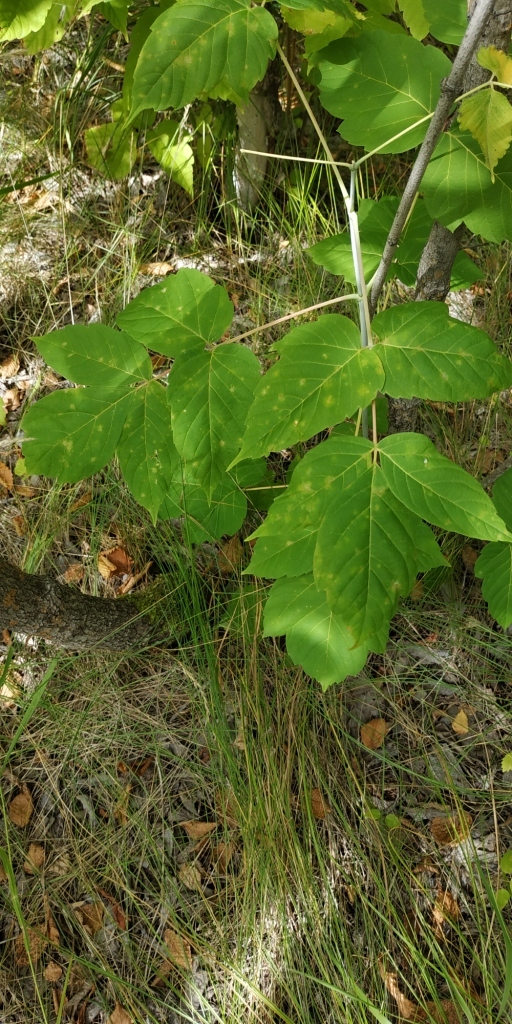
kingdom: Plantae
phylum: Tracheophyta
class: Magnoliopsida
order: Sapindales
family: Sapindaceae
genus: Acer
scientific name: Acer negundo
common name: Ashleaf maple
